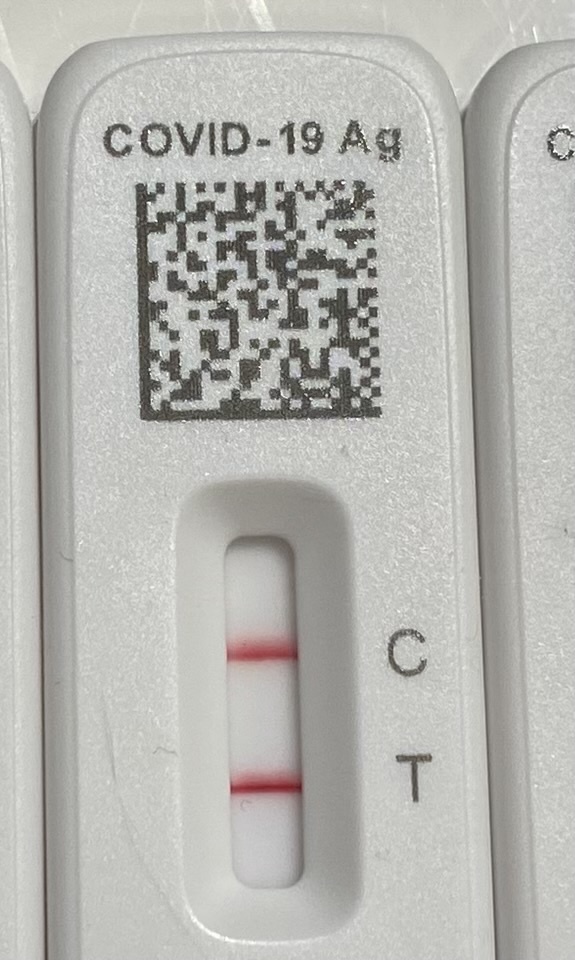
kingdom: Viruses
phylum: Pisuviricota
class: Pisoniviricetes
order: Nidovirales
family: Coronaviridae
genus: Betacoronavirus
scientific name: Betacoronavirus
